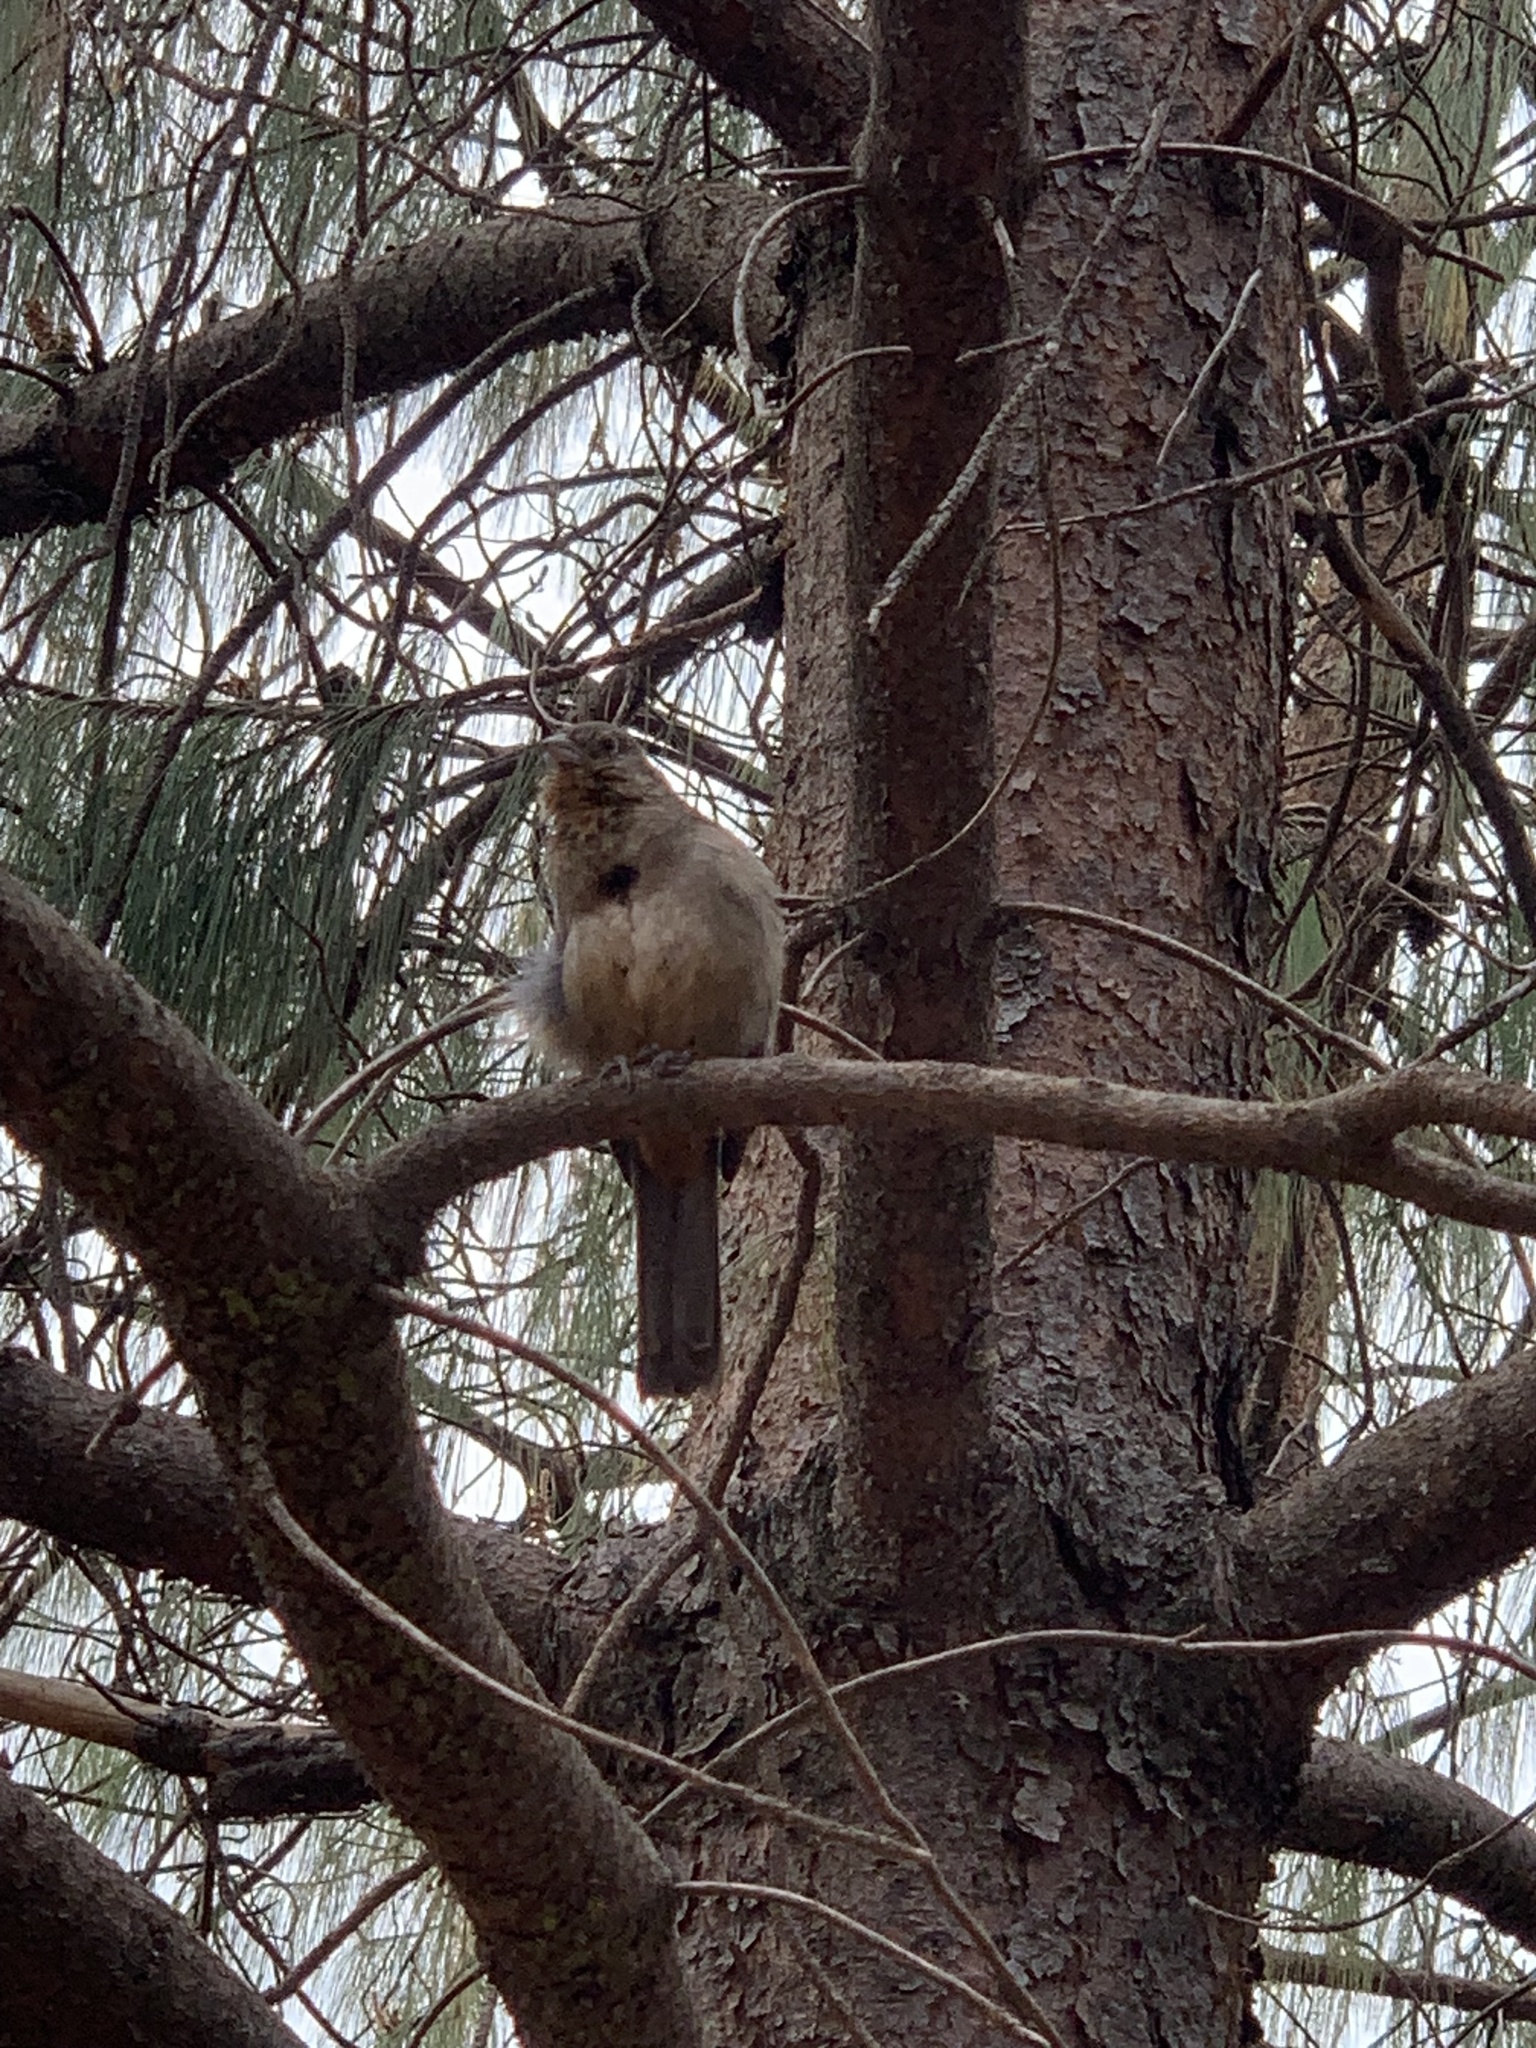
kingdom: Animalia
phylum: Chordata
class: Aves
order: Passeriformes
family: Passerellidae
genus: Melozone
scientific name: Melozone fusca
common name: Canyon towhee
